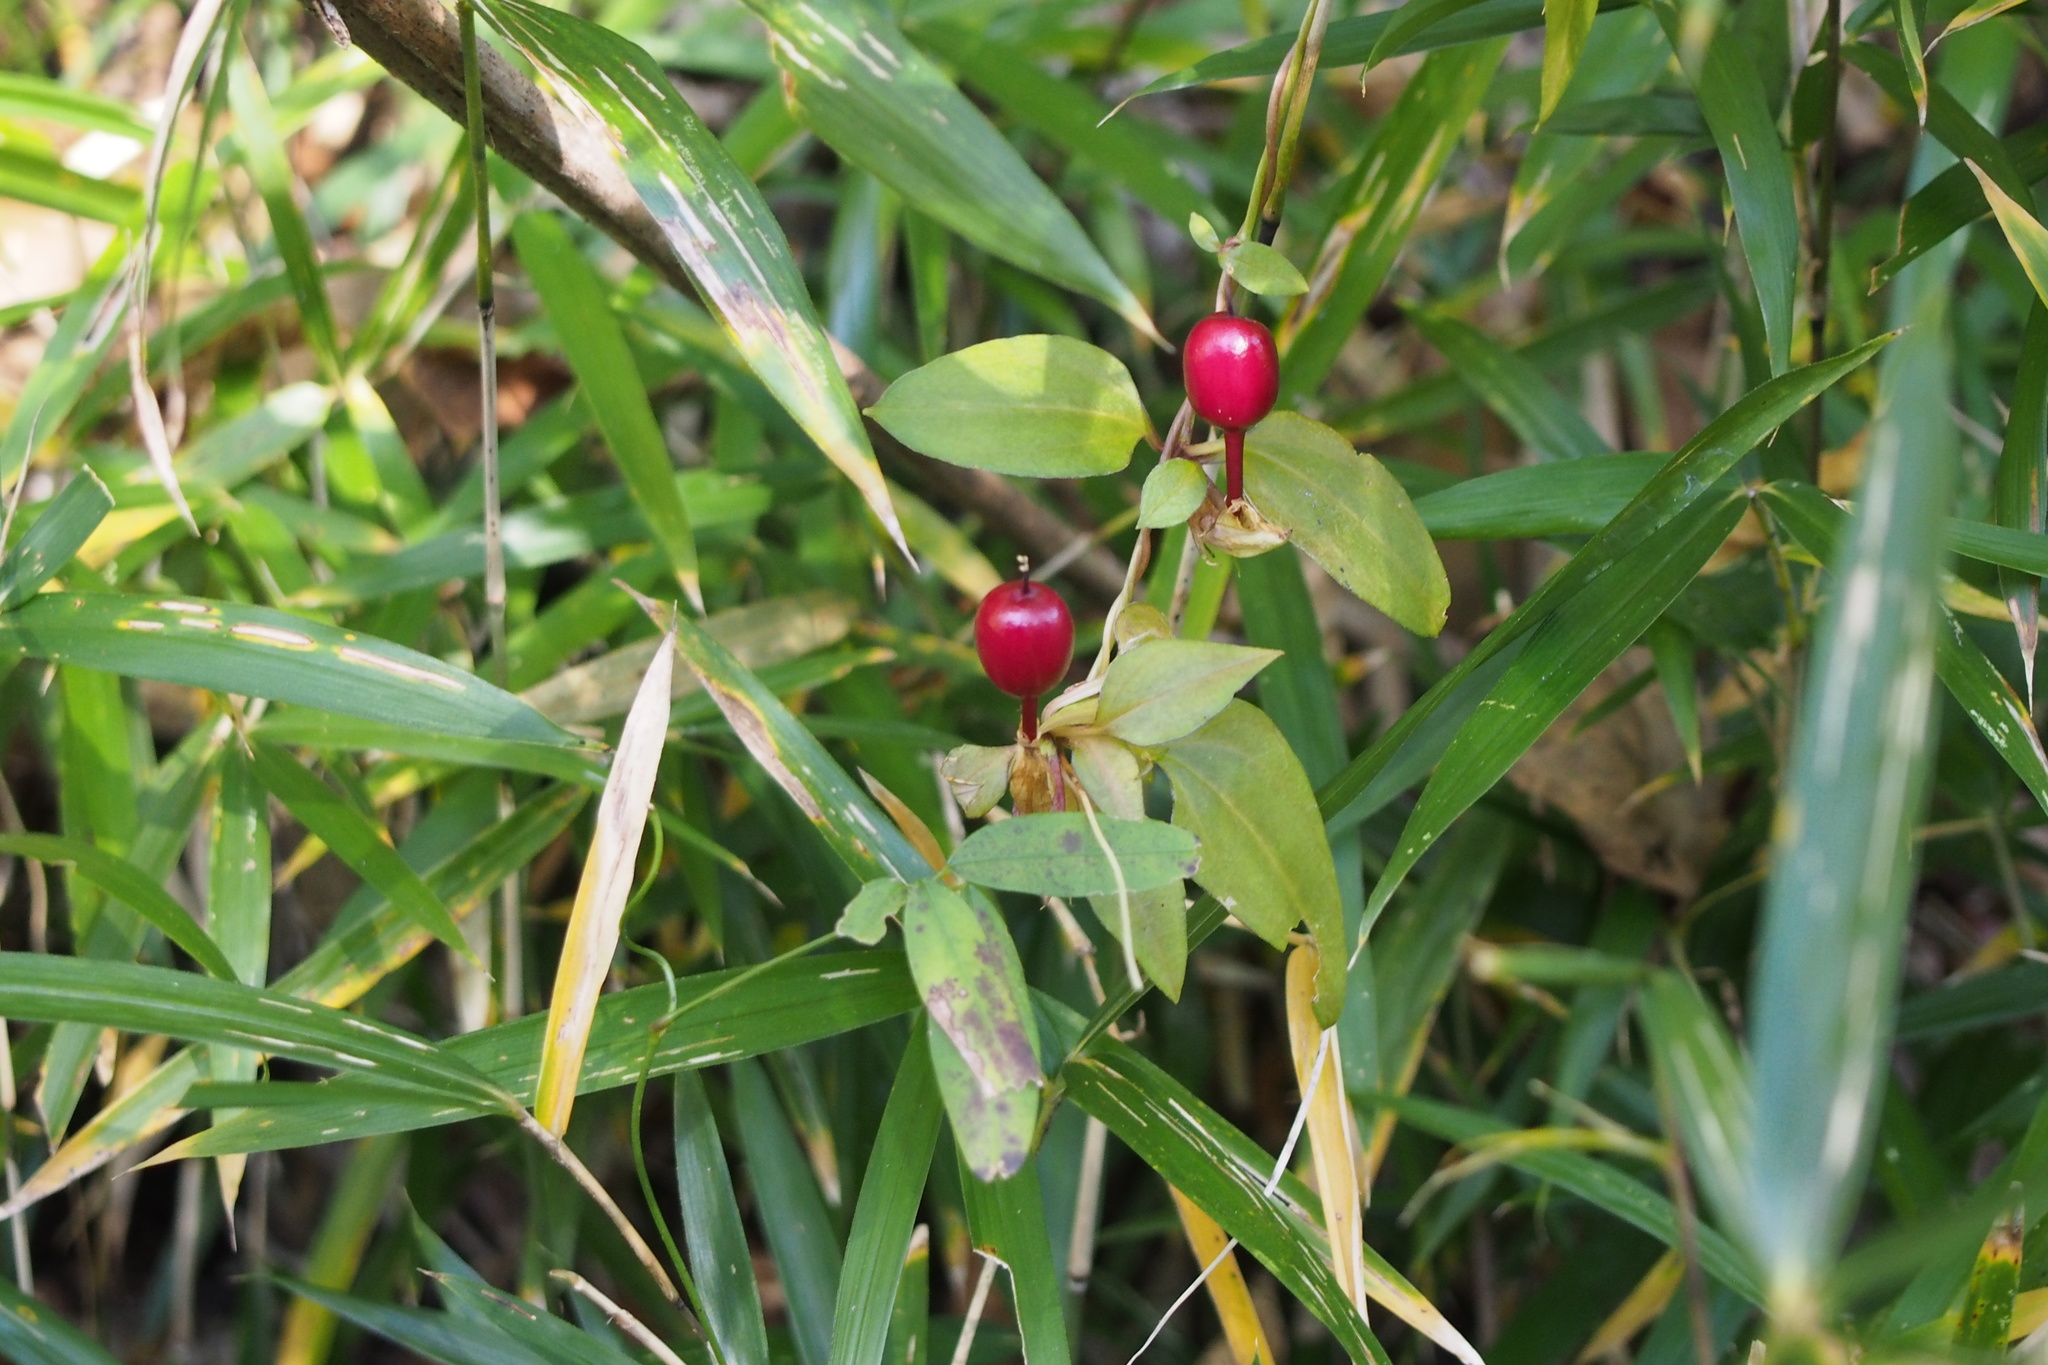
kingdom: Plantae
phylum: Tracheophyta
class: Magnoliopsida
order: Gentianales
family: Gentianaceae
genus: Tripterospermum
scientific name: Tripterospermum trinervium
